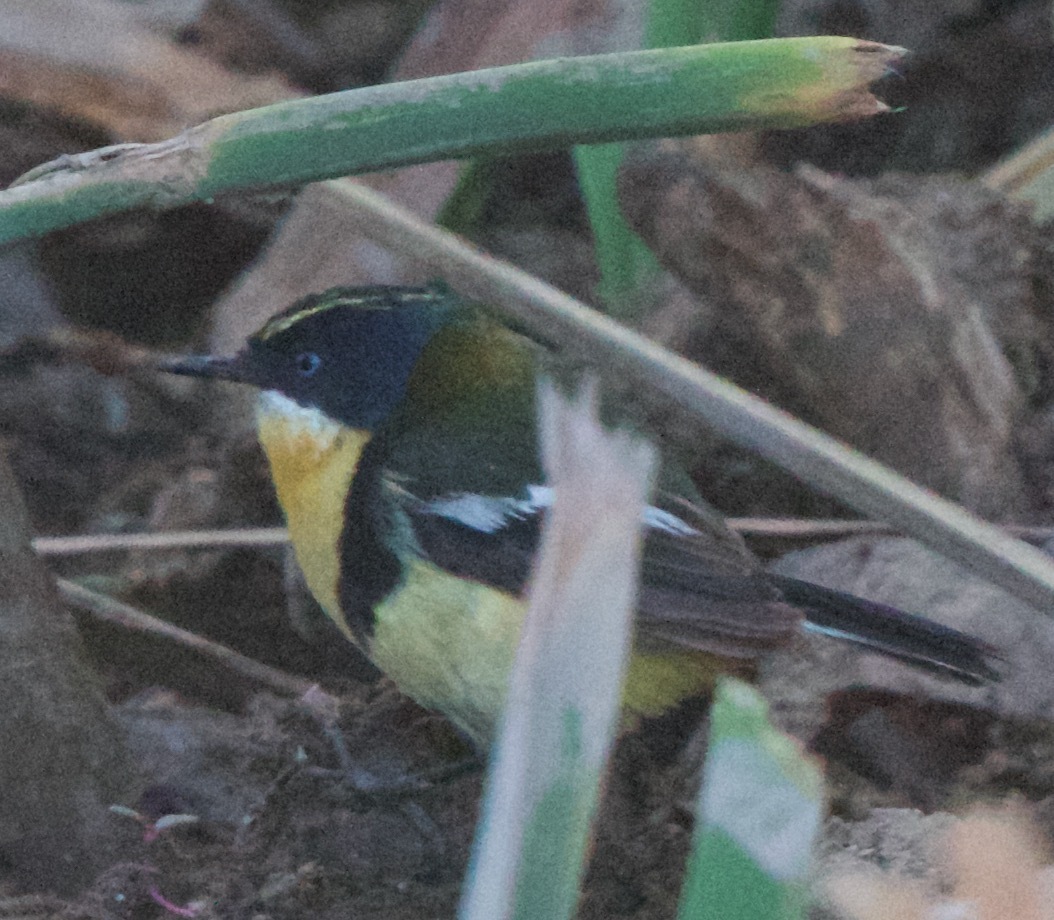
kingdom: Animalia
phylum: Chordata
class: Aves
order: Passeriformes
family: Tyrannidae
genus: Tachuris
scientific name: Tachuris rubrigastra
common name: Many-colored rush tyrant
